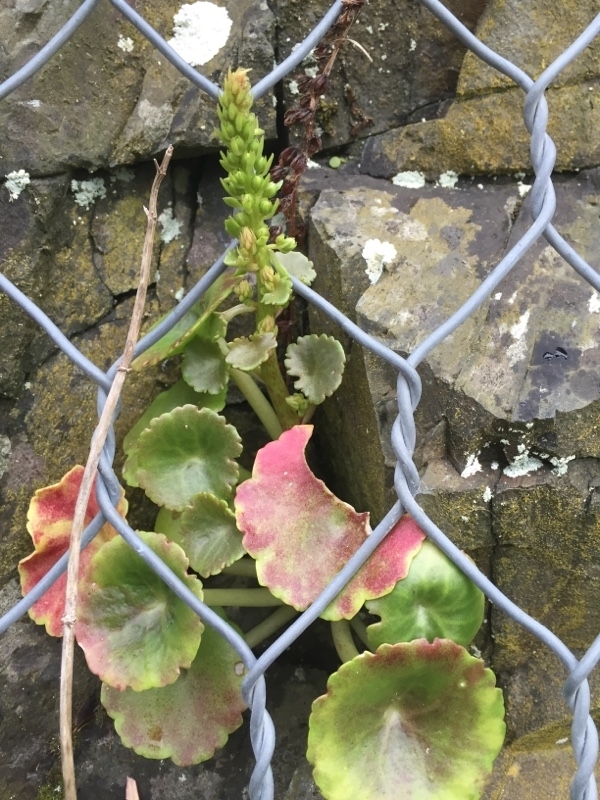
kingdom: Plantae
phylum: Tracheophyta
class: Magnoliopsida
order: Saxifragales
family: Crassulaceae
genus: Umbilicus
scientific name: Umbilicus rupestris
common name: Navelwort
